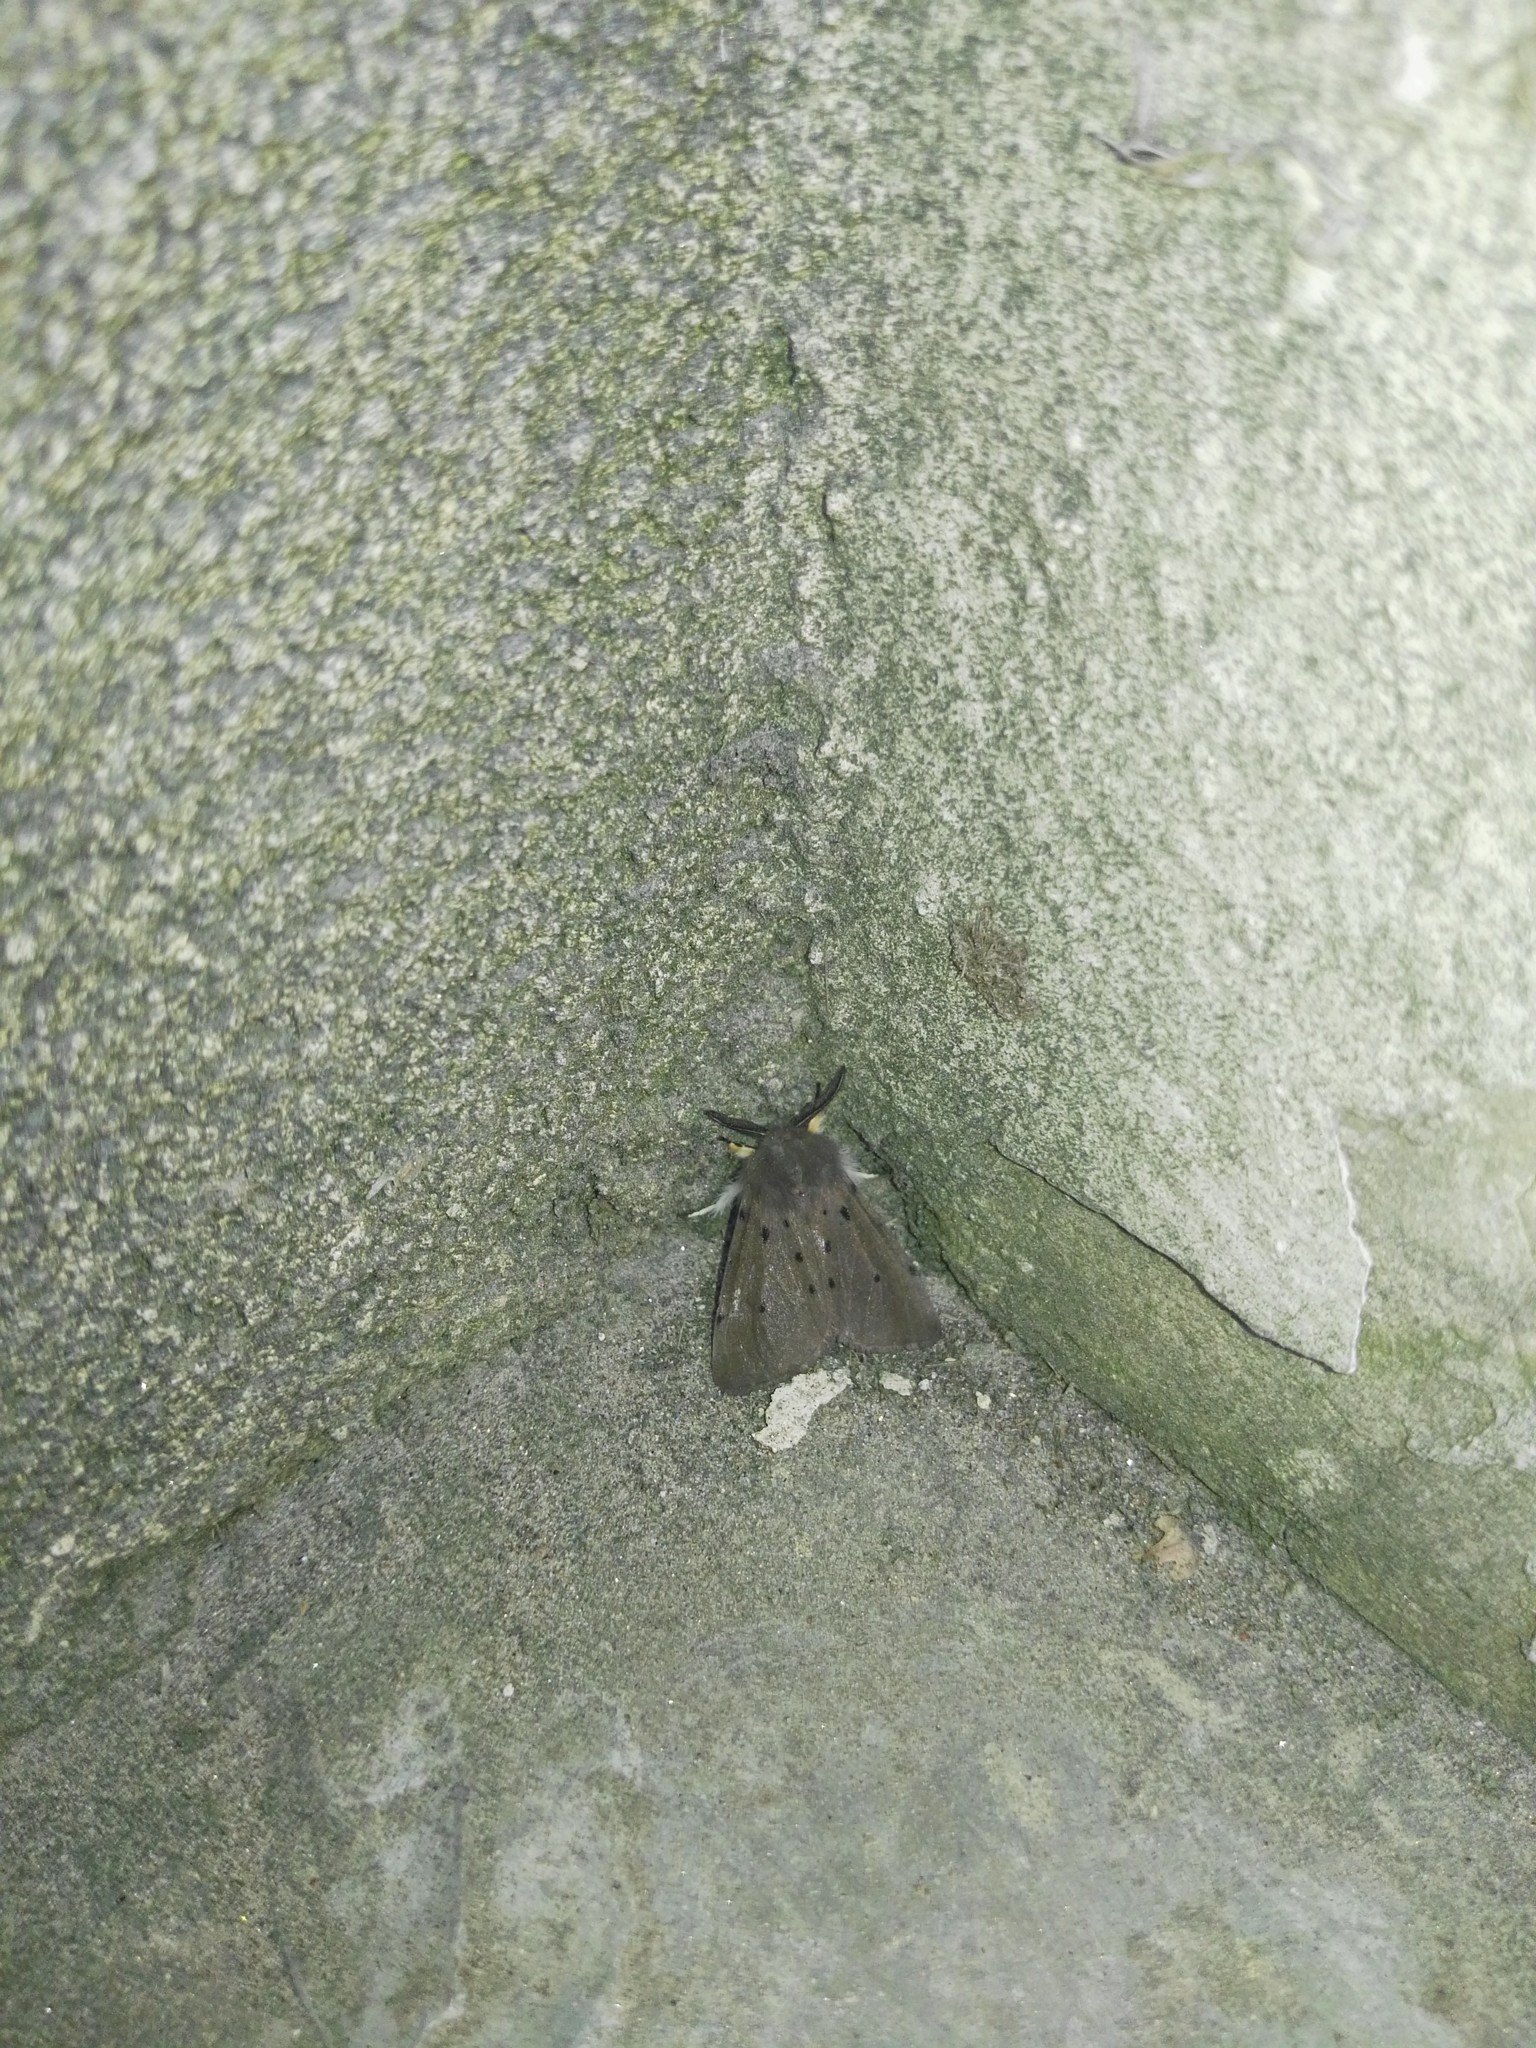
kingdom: Animalia
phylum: Arthropoda
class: Insecta
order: Lepidoptera
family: Erebidae
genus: Diaphora
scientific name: Diaphora mendica
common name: Muslin moth
